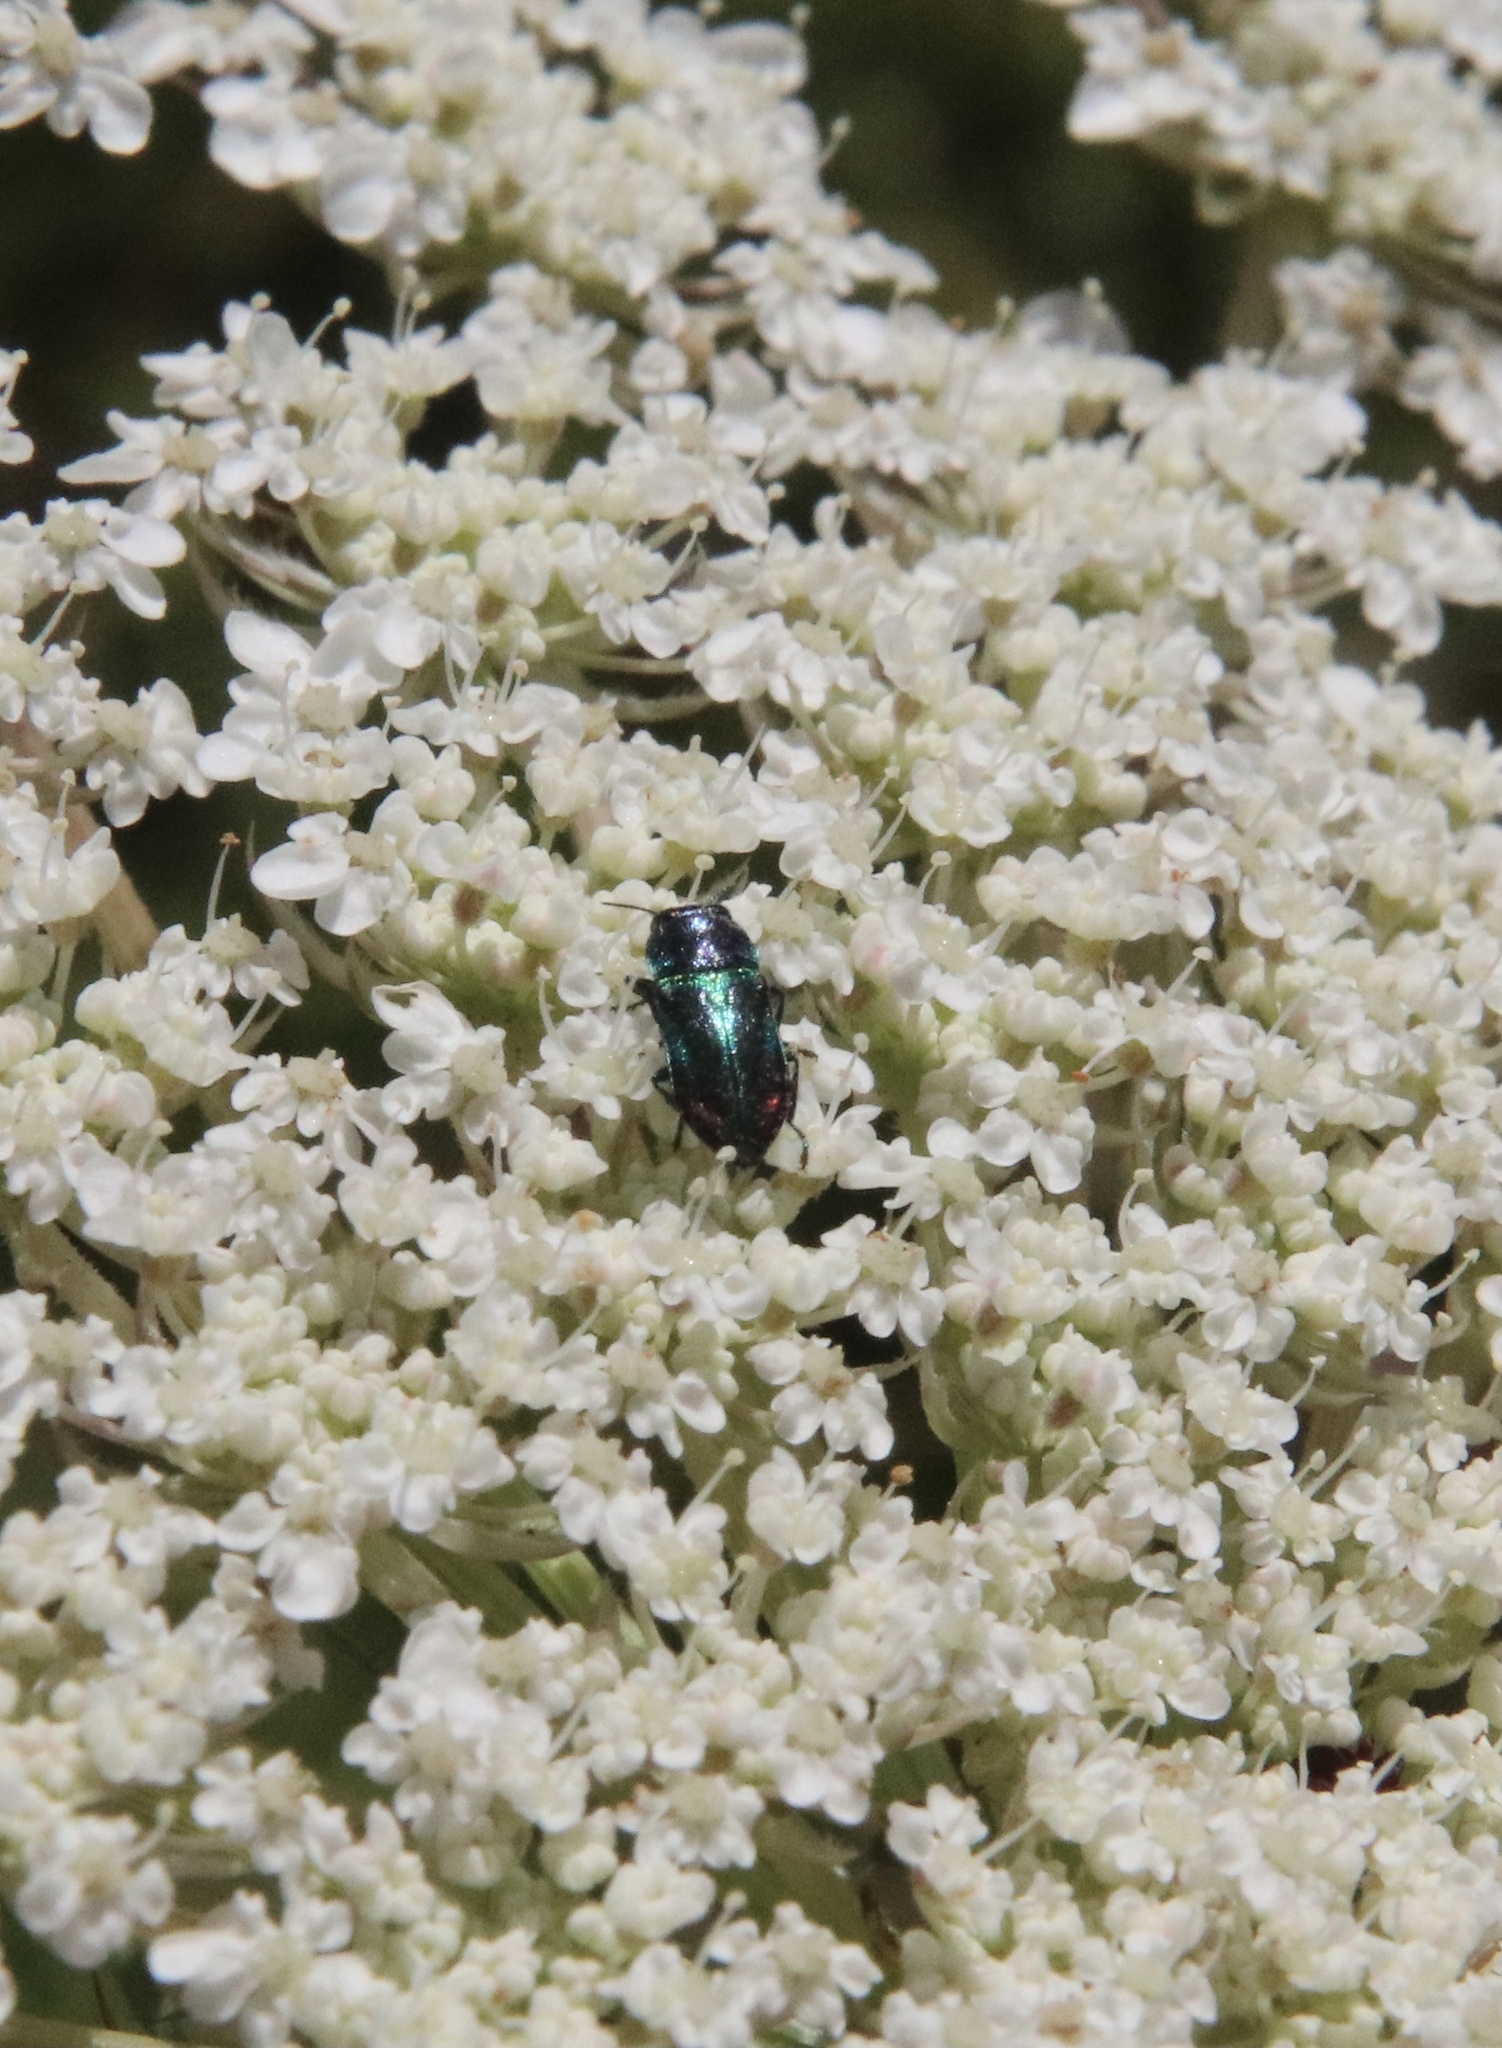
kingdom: Animalia
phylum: Arthropoda
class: Insecta
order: Coleoptera
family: Buprestidae
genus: Bilyaxia
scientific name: Bilyaxia concinna
